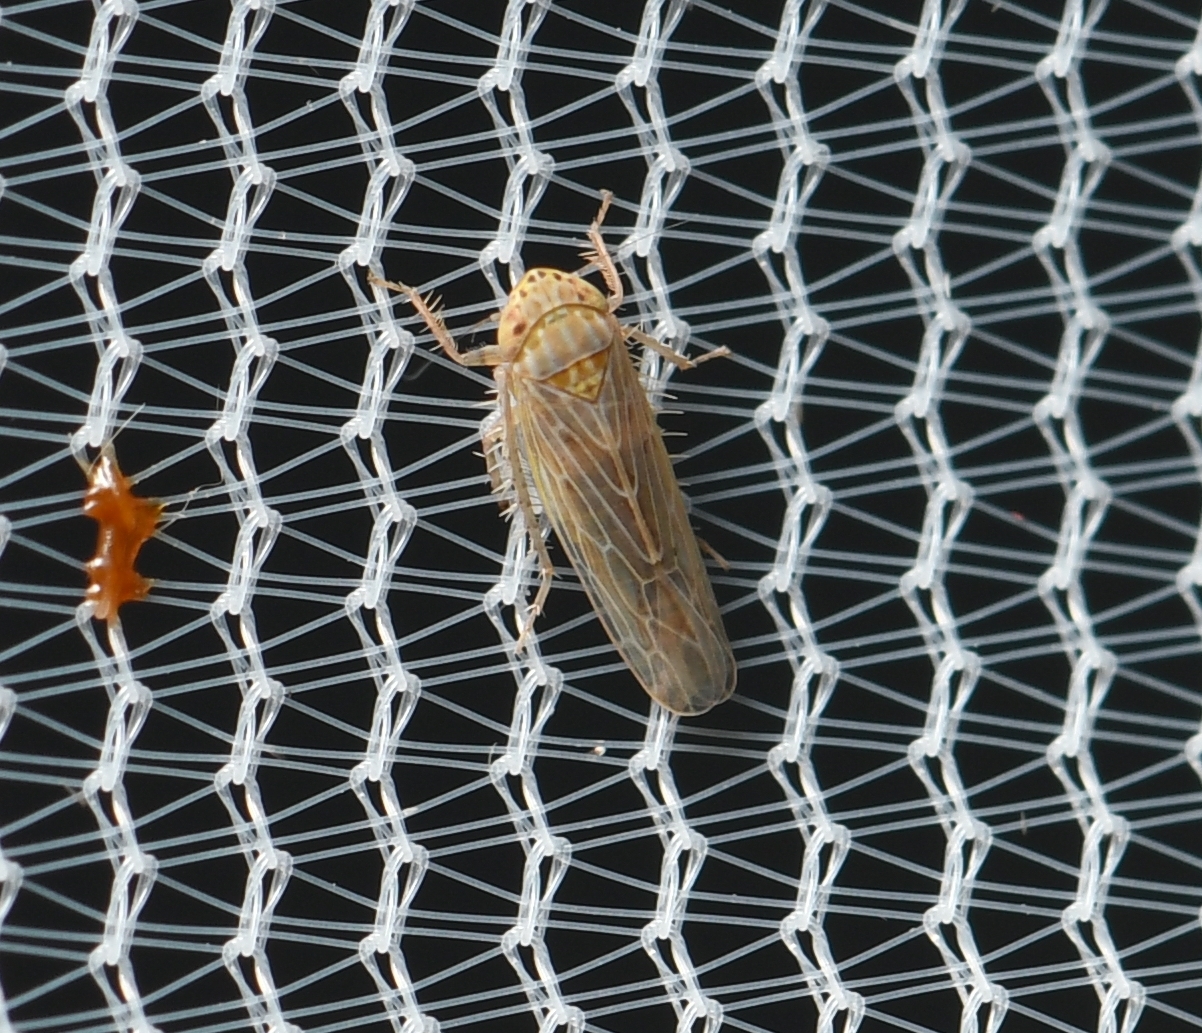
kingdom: Animalia
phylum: Arthropoda
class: Insecta
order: Hemiptera
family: Cicadellidae
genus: Graminella
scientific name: Graminella sonora
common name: Lesser lawn leafhopper
